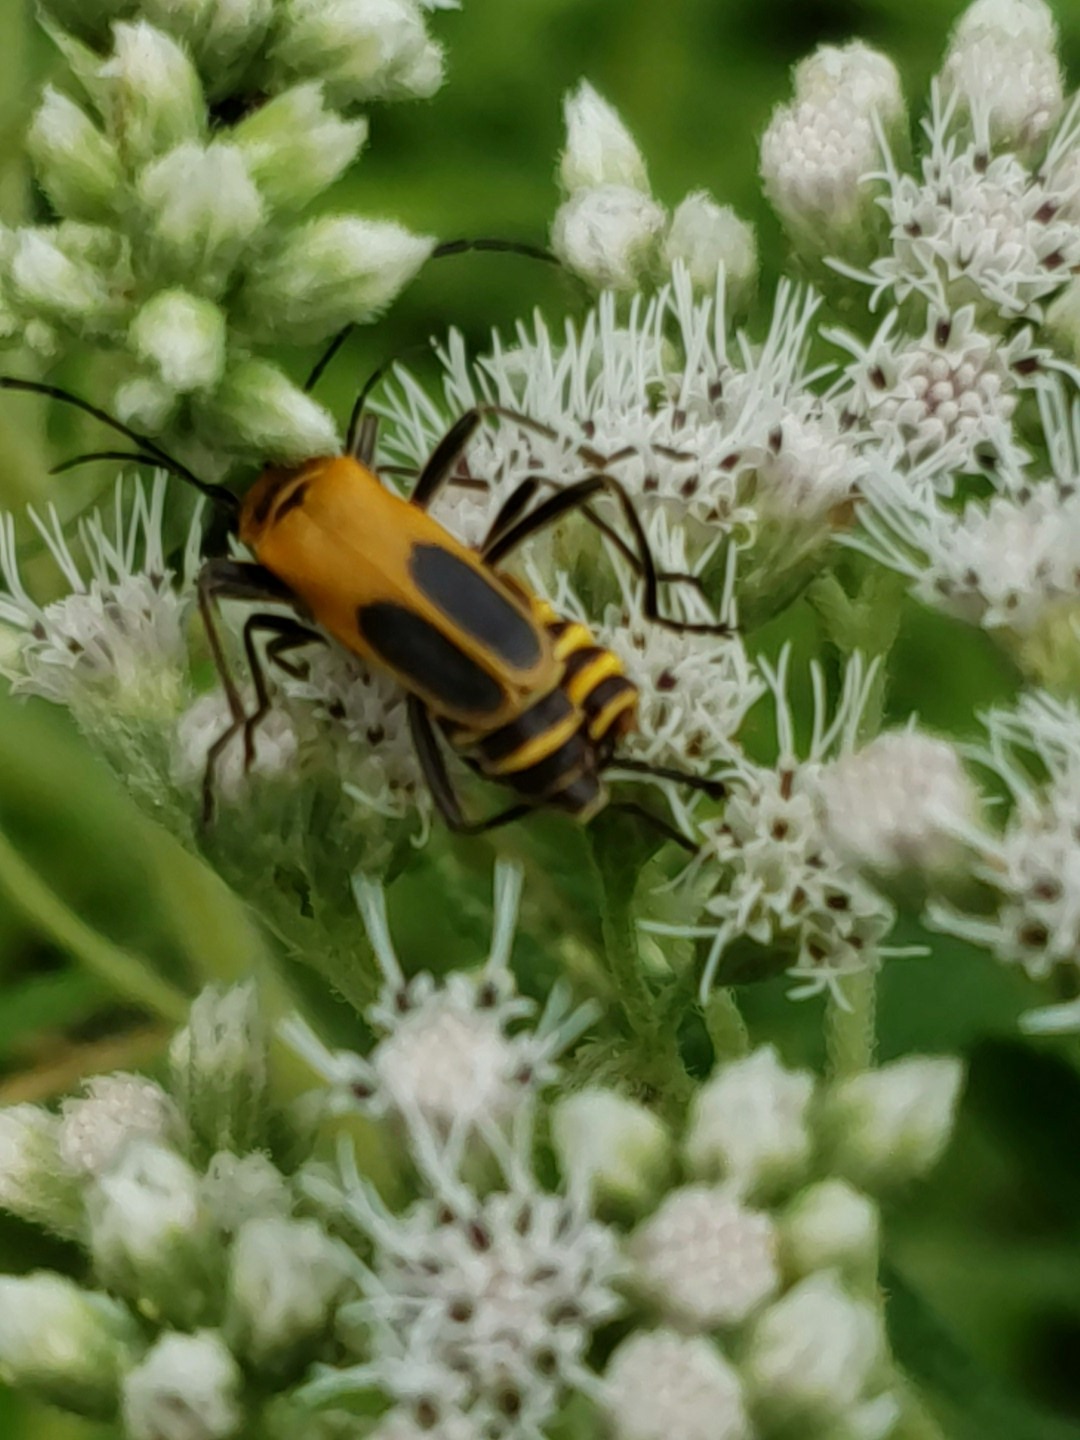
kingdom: Animalia
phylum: Arthropoda
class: Insecta
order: Coleoptera
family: Cantharidae
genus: Chauliognathus
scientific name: Chauliognathus pensylvanicus
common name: Goldenrod soldier beetle
